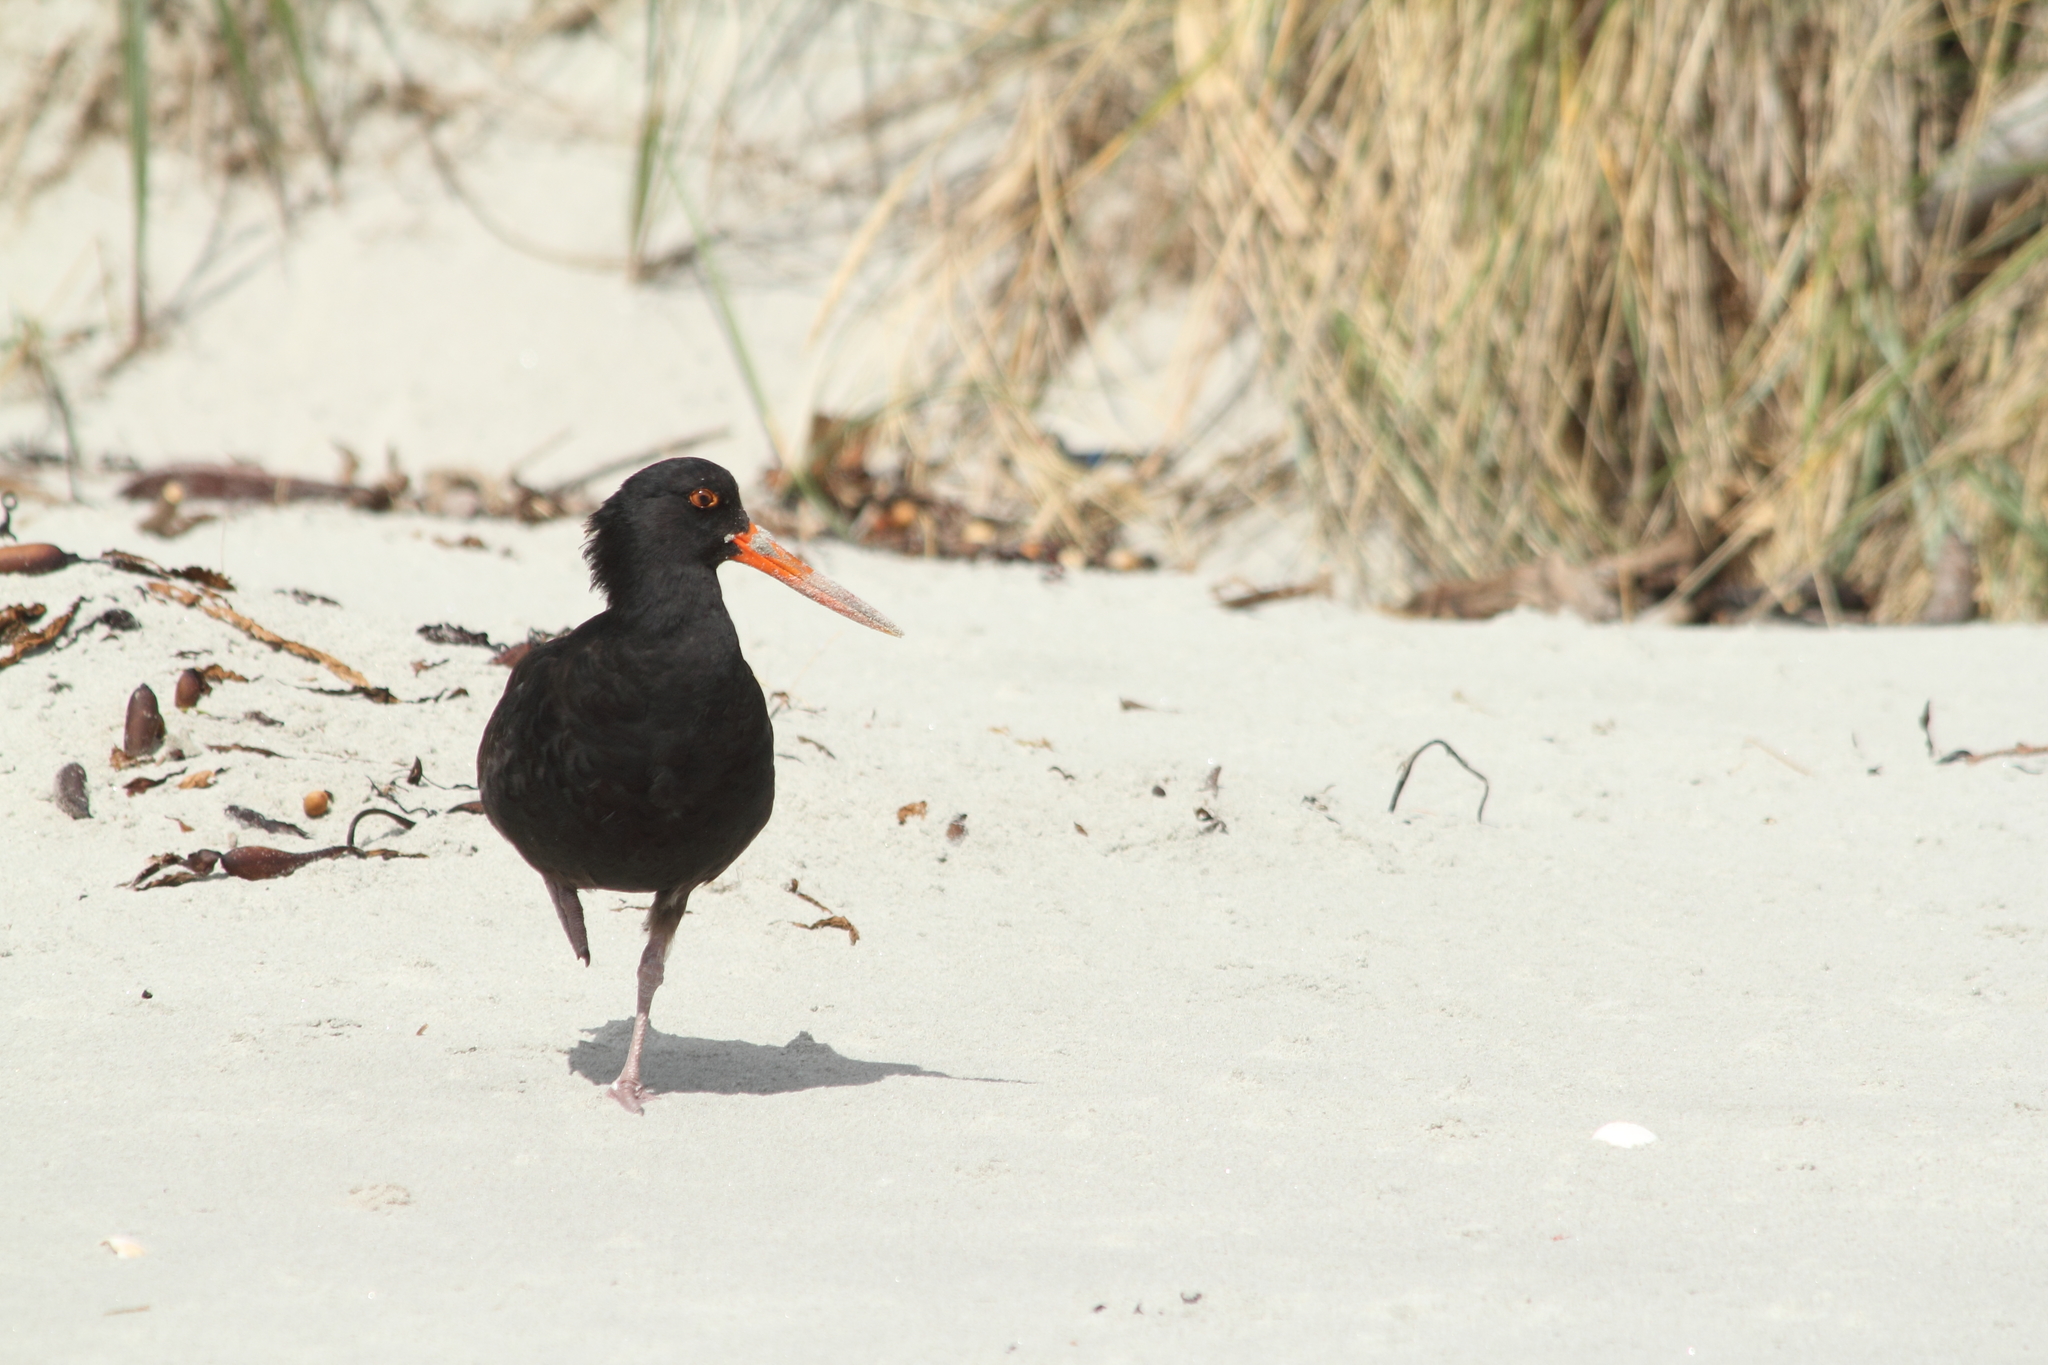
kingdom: Animalia
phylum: Chordata
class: Aves
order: Charadriiformes
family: Haematopodidae
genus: Haematopus
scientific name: Haematopus unicolor
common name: Variable oystercatcher
